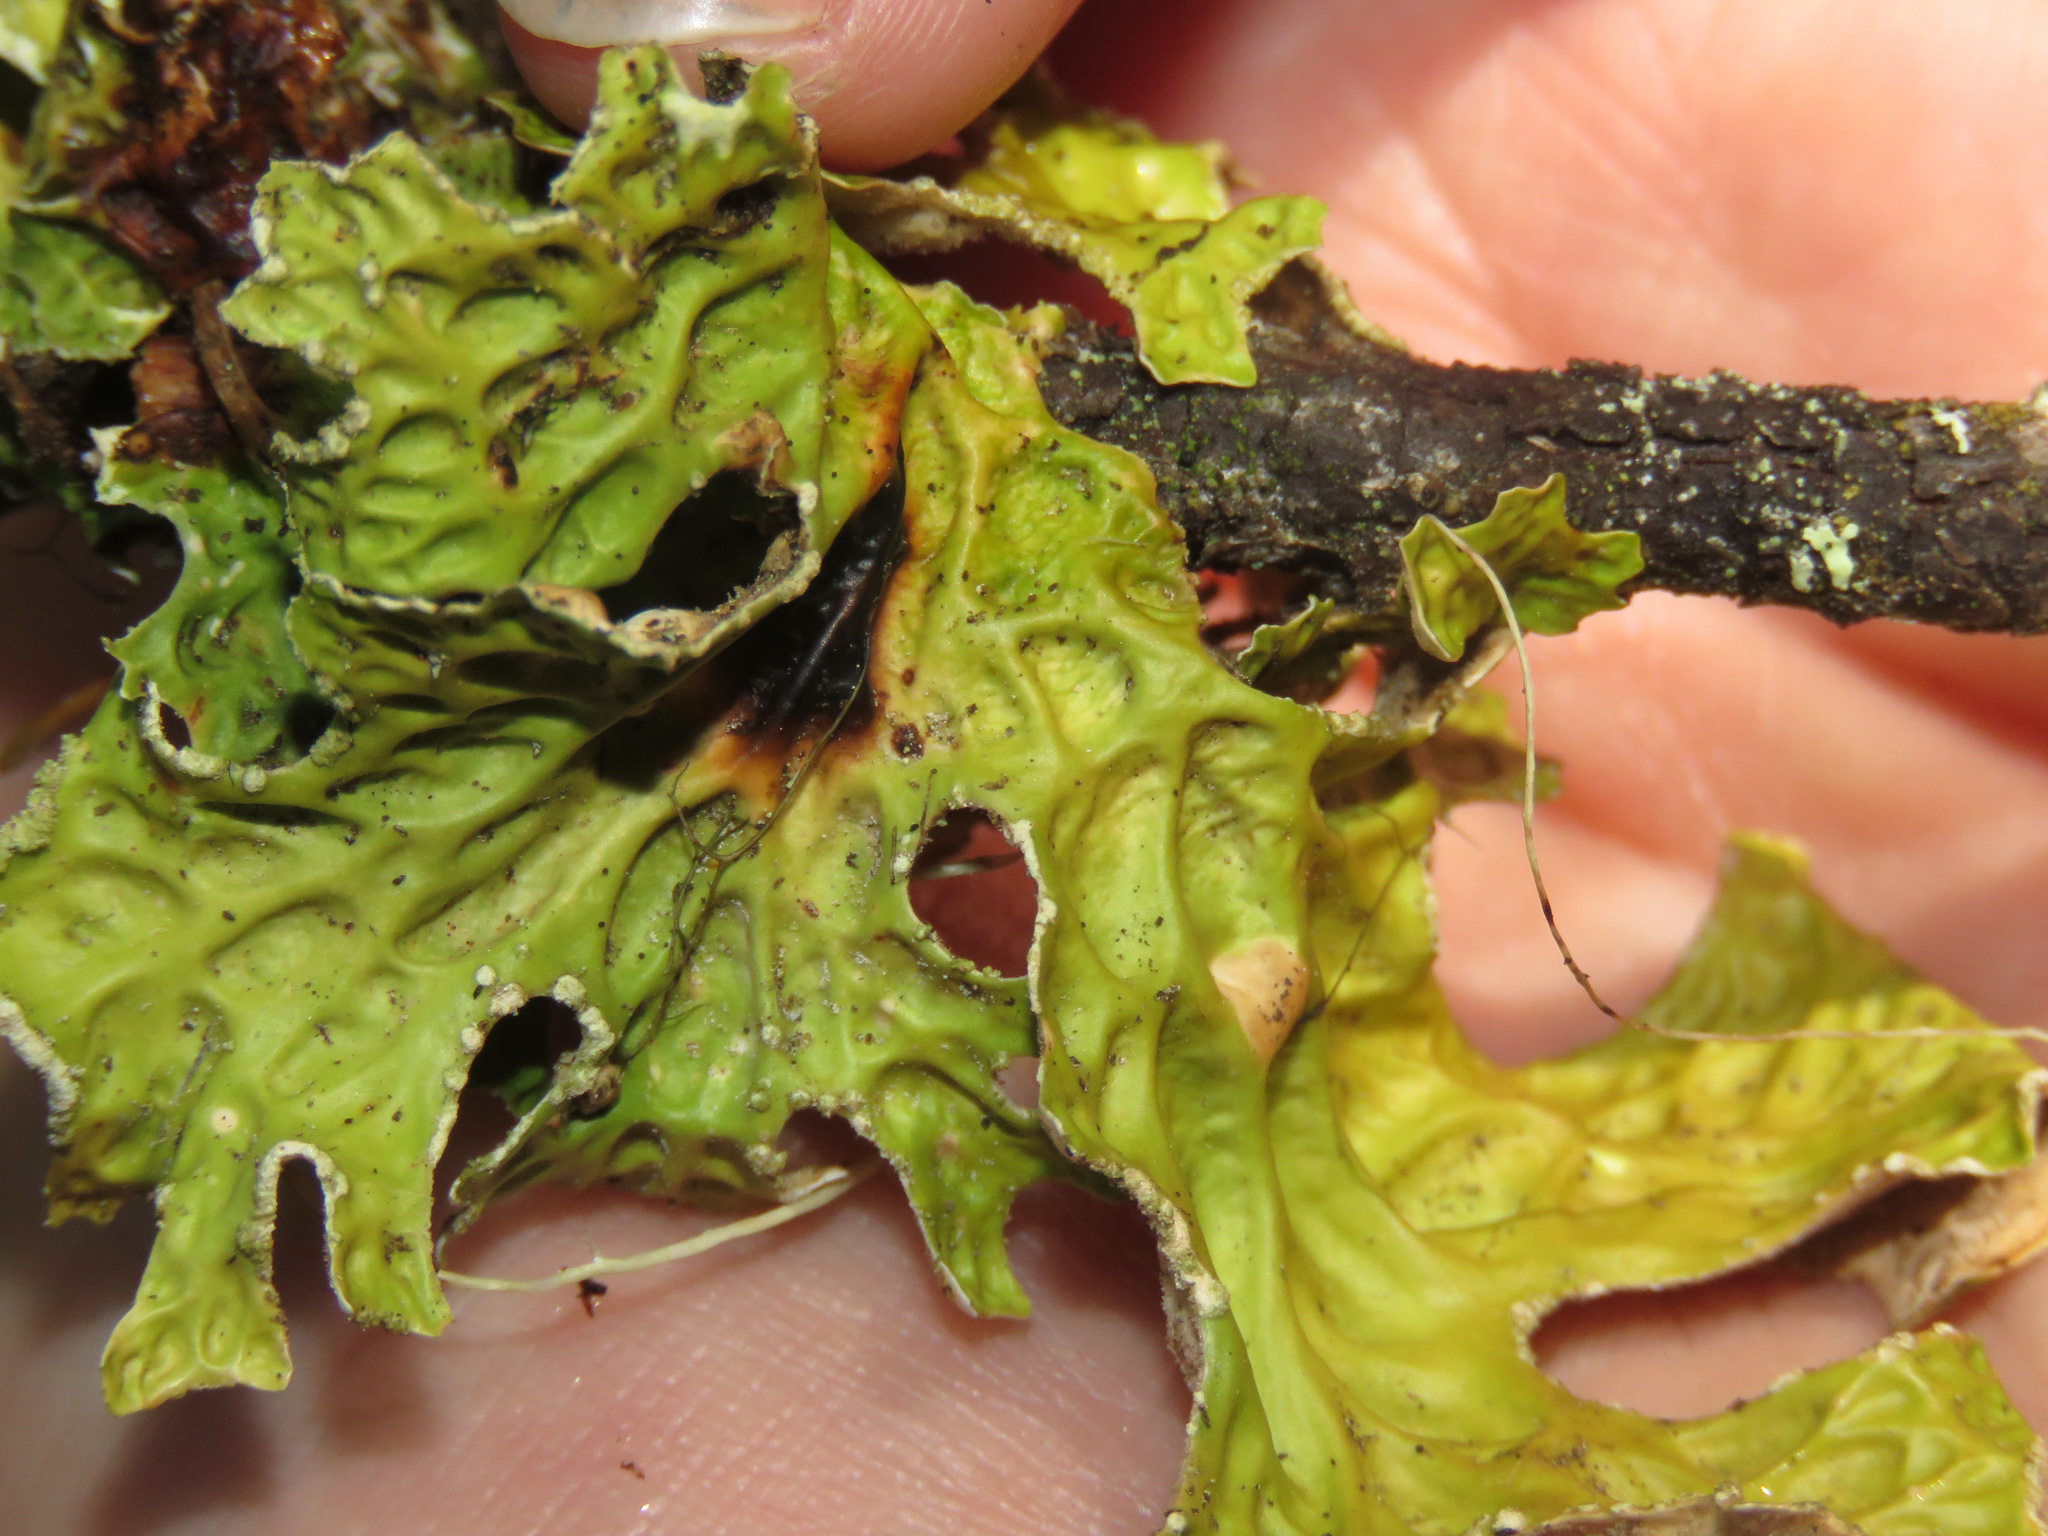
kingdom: Fungi
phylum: Ascomycota
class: Lecanoromycetes
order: Peltigerales
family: Lobariaceae
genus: Lobaria
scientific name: Lobaria pulmonaria
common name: Lungwort
